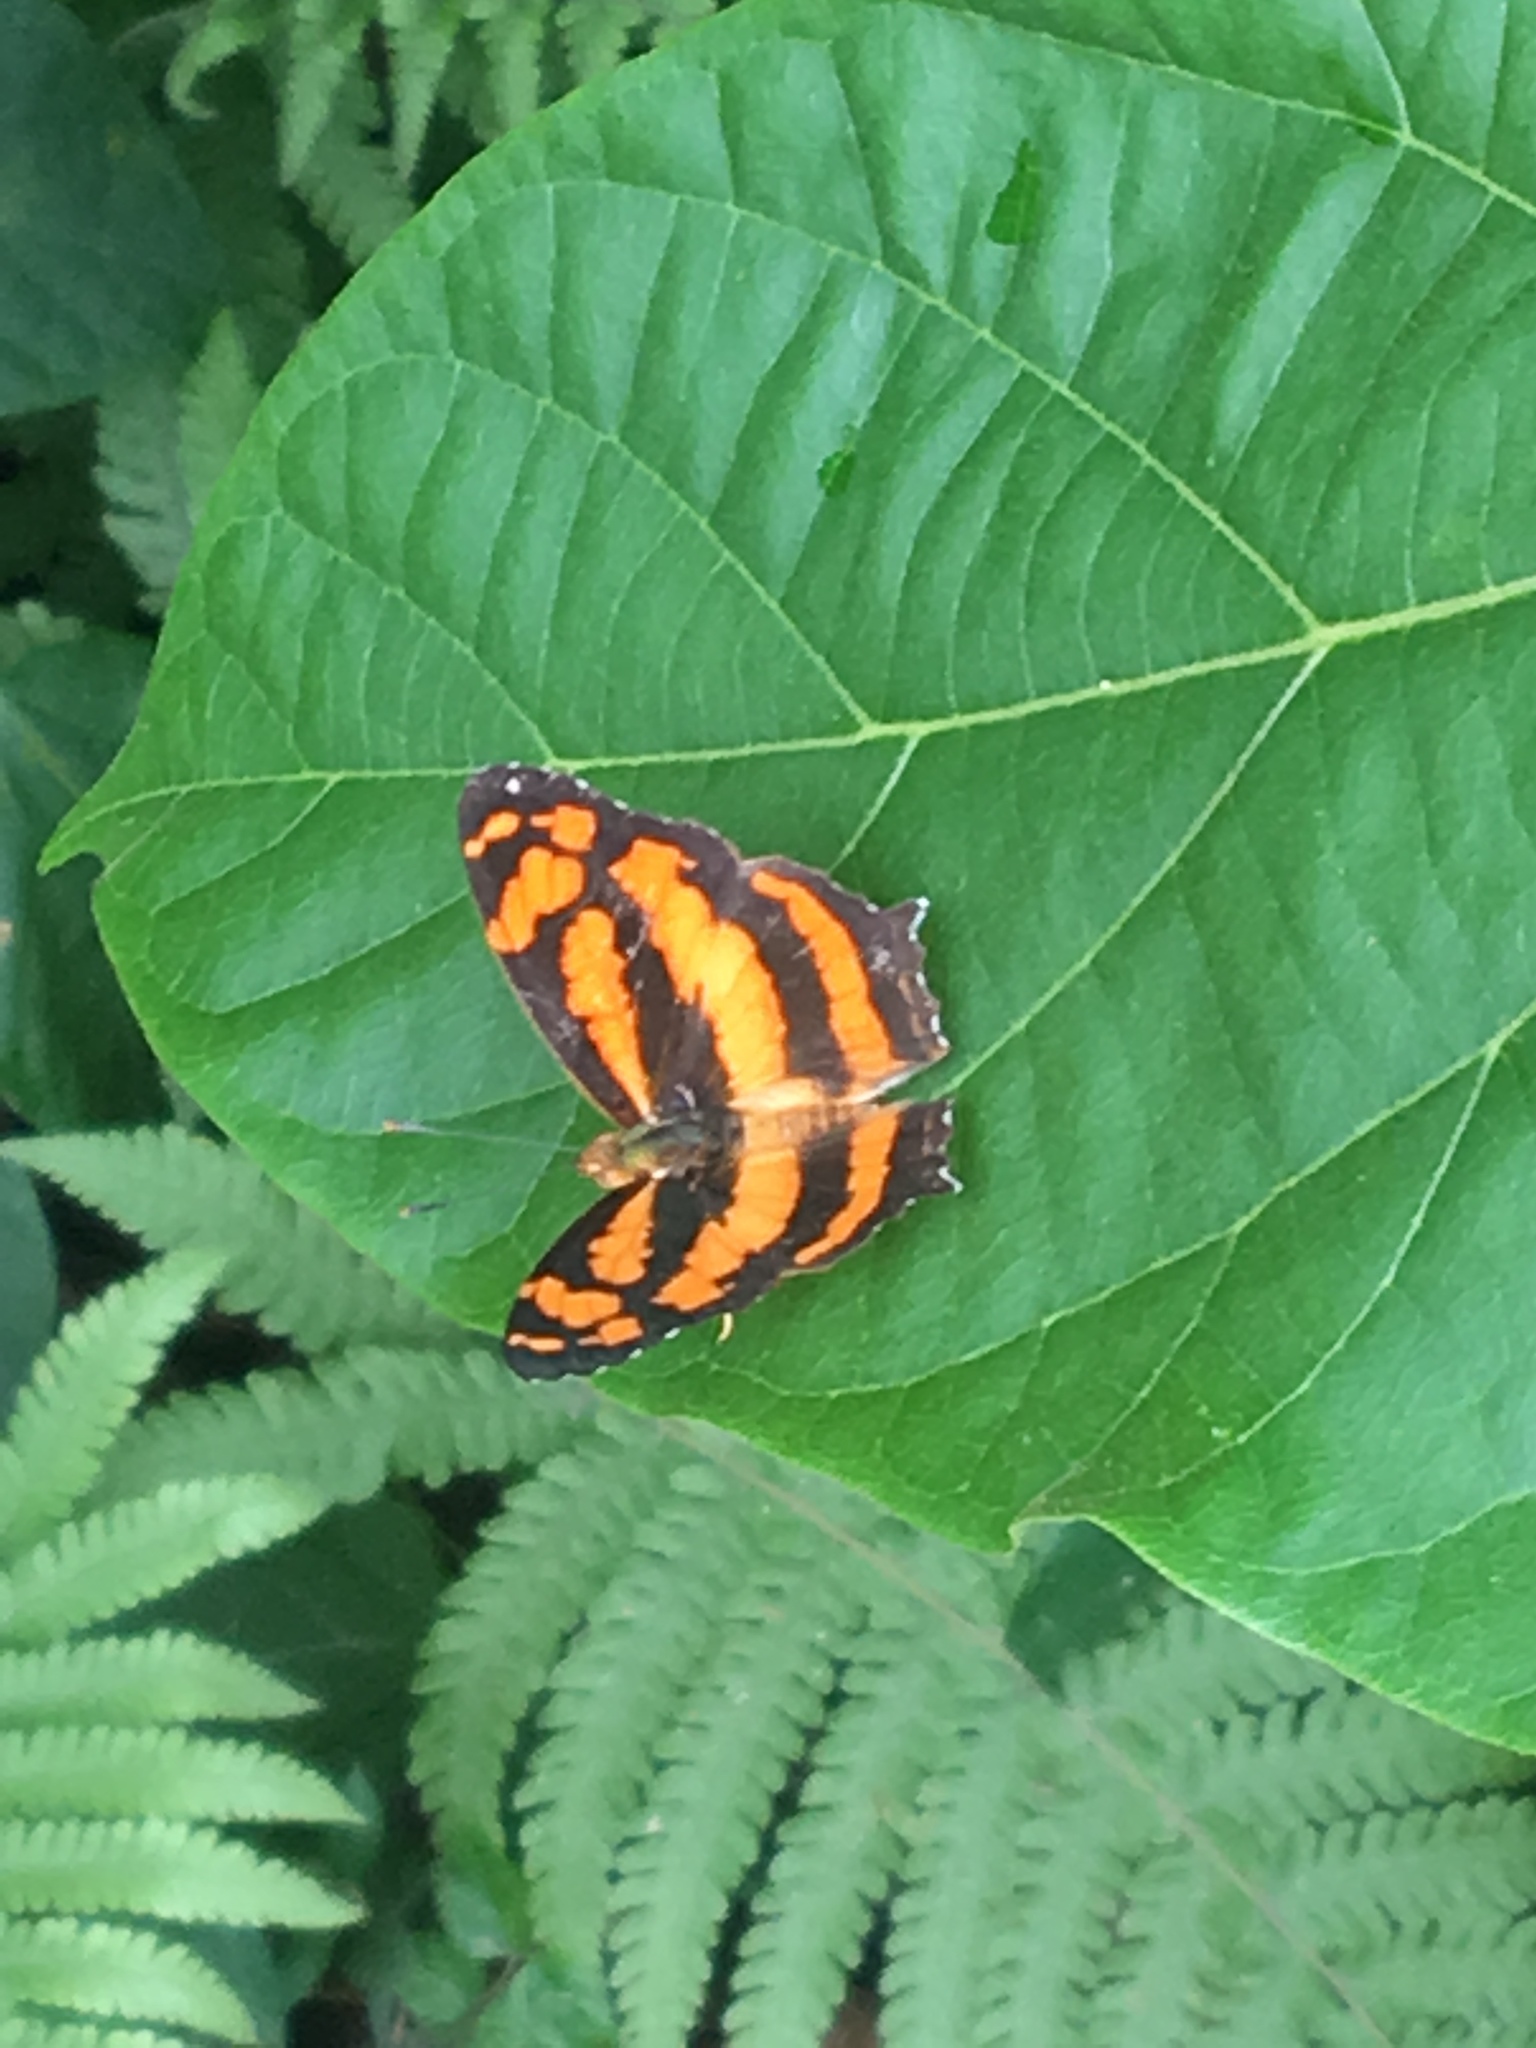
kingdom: Animalia
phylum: Arthropoda
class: Insecta
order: Lepidoptera
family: Nymphalidae
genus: Symbrenthia
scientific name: Symbrenthia hypselis
